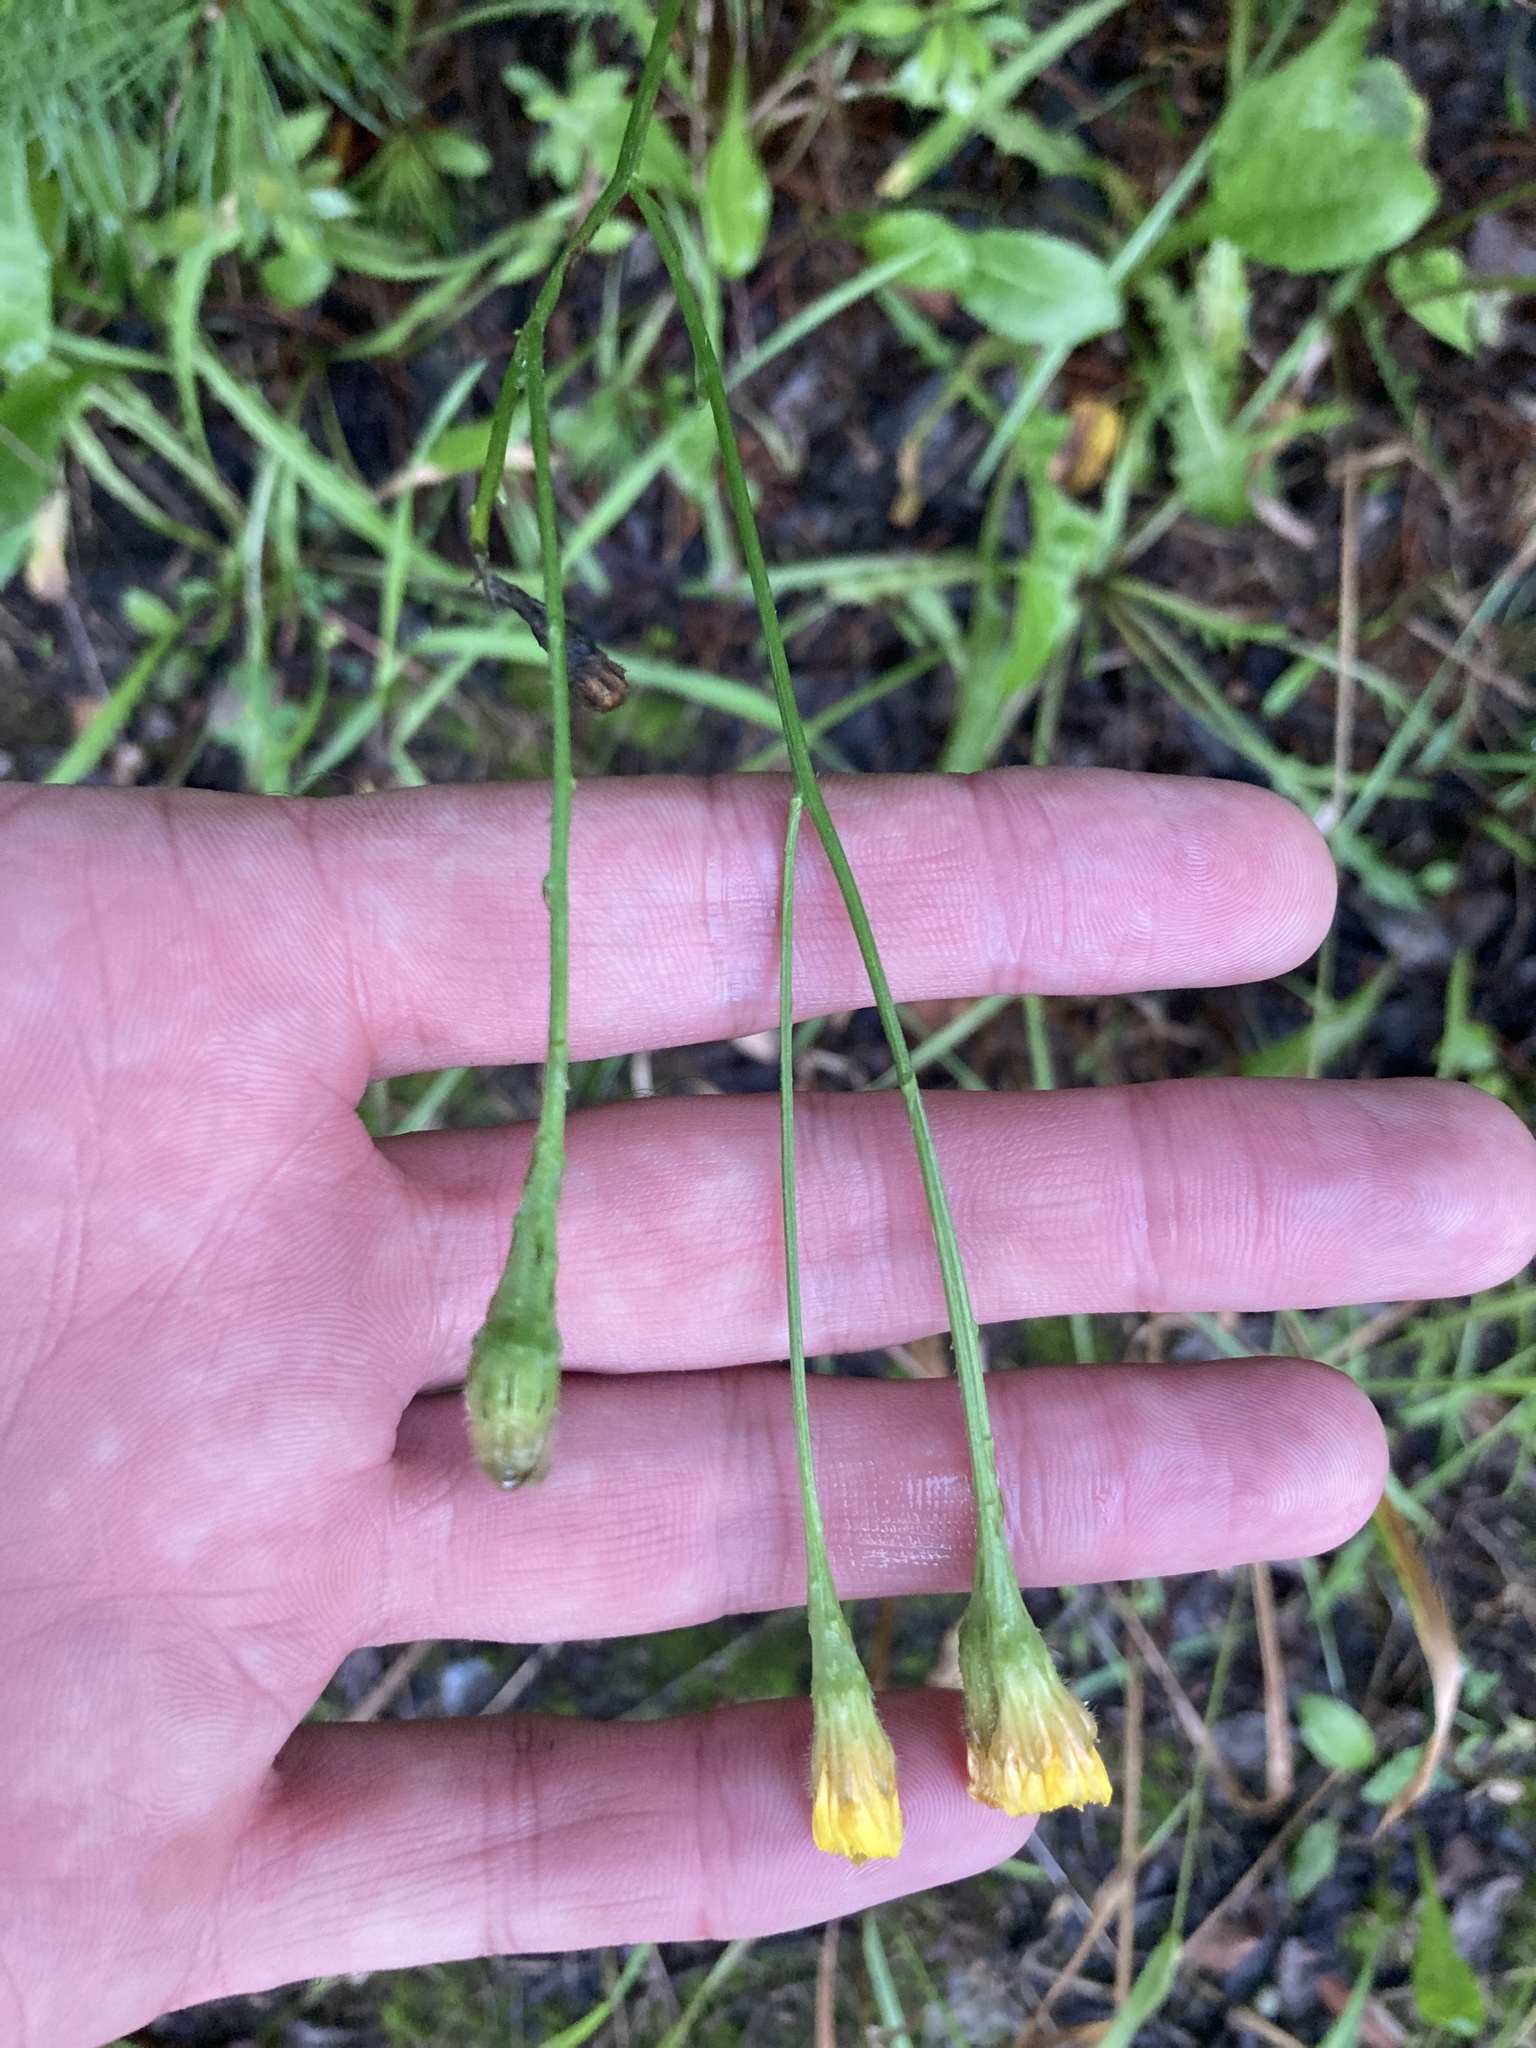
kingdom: Plantae
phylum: Tracheophyta
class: Magnoliopsida
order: Asterales
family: Asteraceae
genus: Scorzoneroides
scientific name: Scorzoneroides autumnalis
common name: Autumn hawkbit
